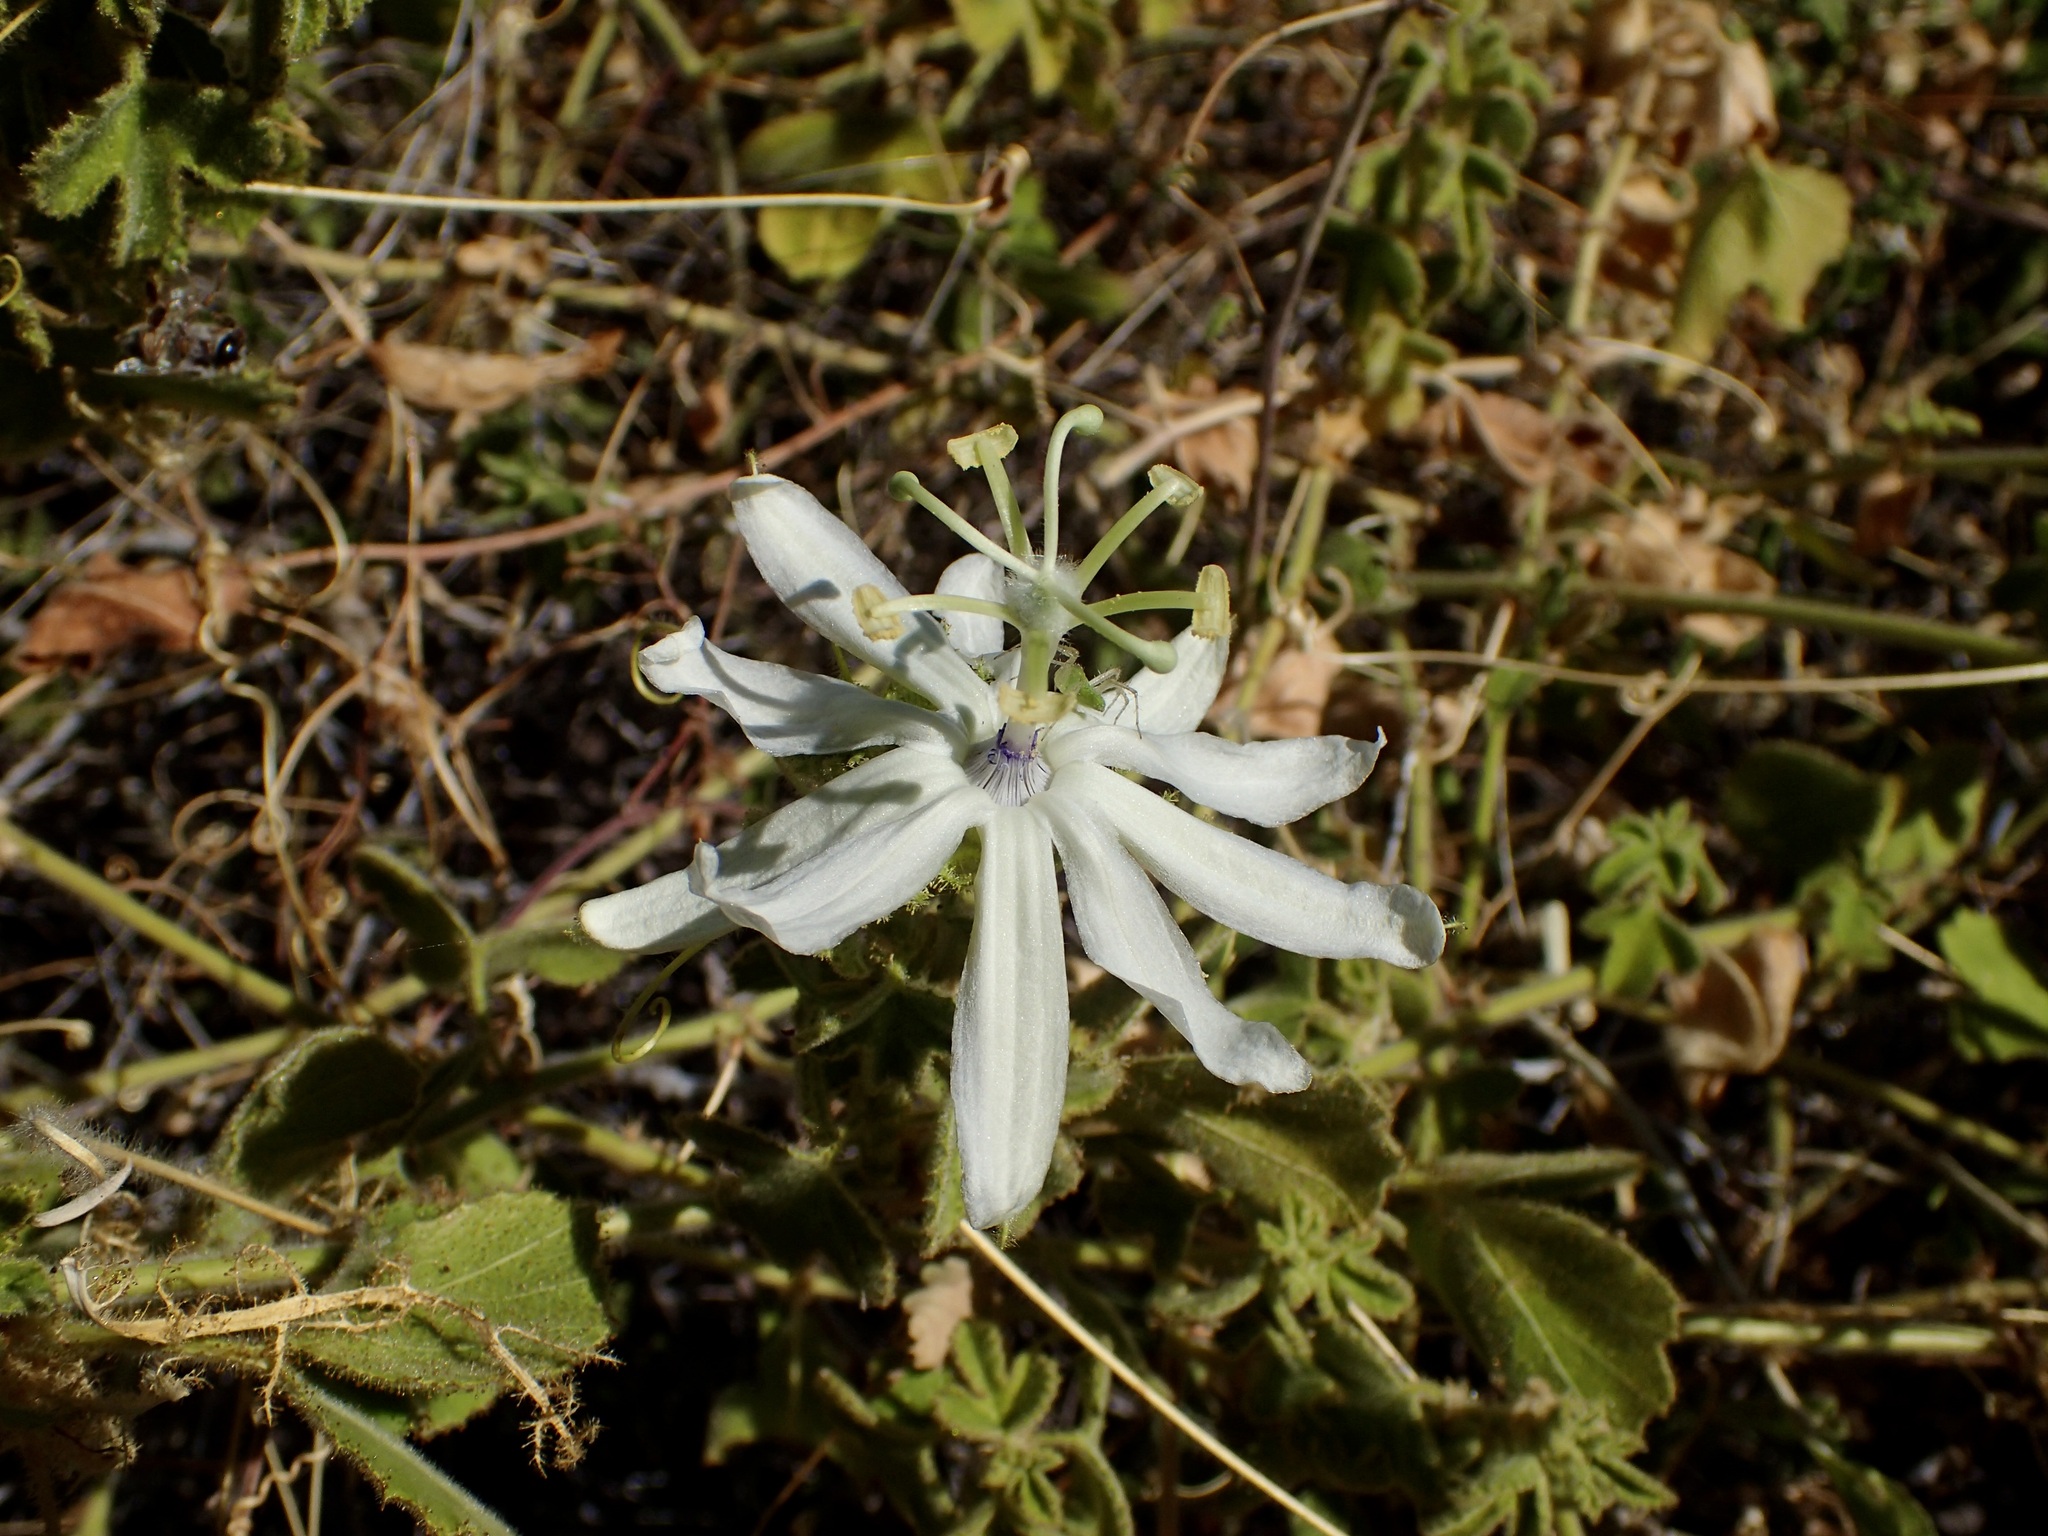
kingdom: Plantae
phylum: Tracheophyta
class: Magnoliopsida
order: Malpighiales
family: Passifloraceae
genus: Passiflora
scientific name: Passiflora palmeri
